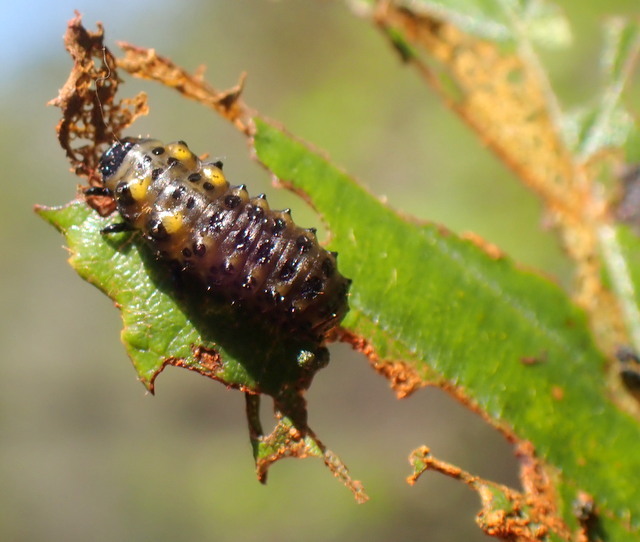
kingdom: Animalia
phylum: Arthropoda
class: Insecta
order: Coleoptera
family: Chrysomelidae
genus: Chrysomela
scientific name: Chrysomela interrupta
